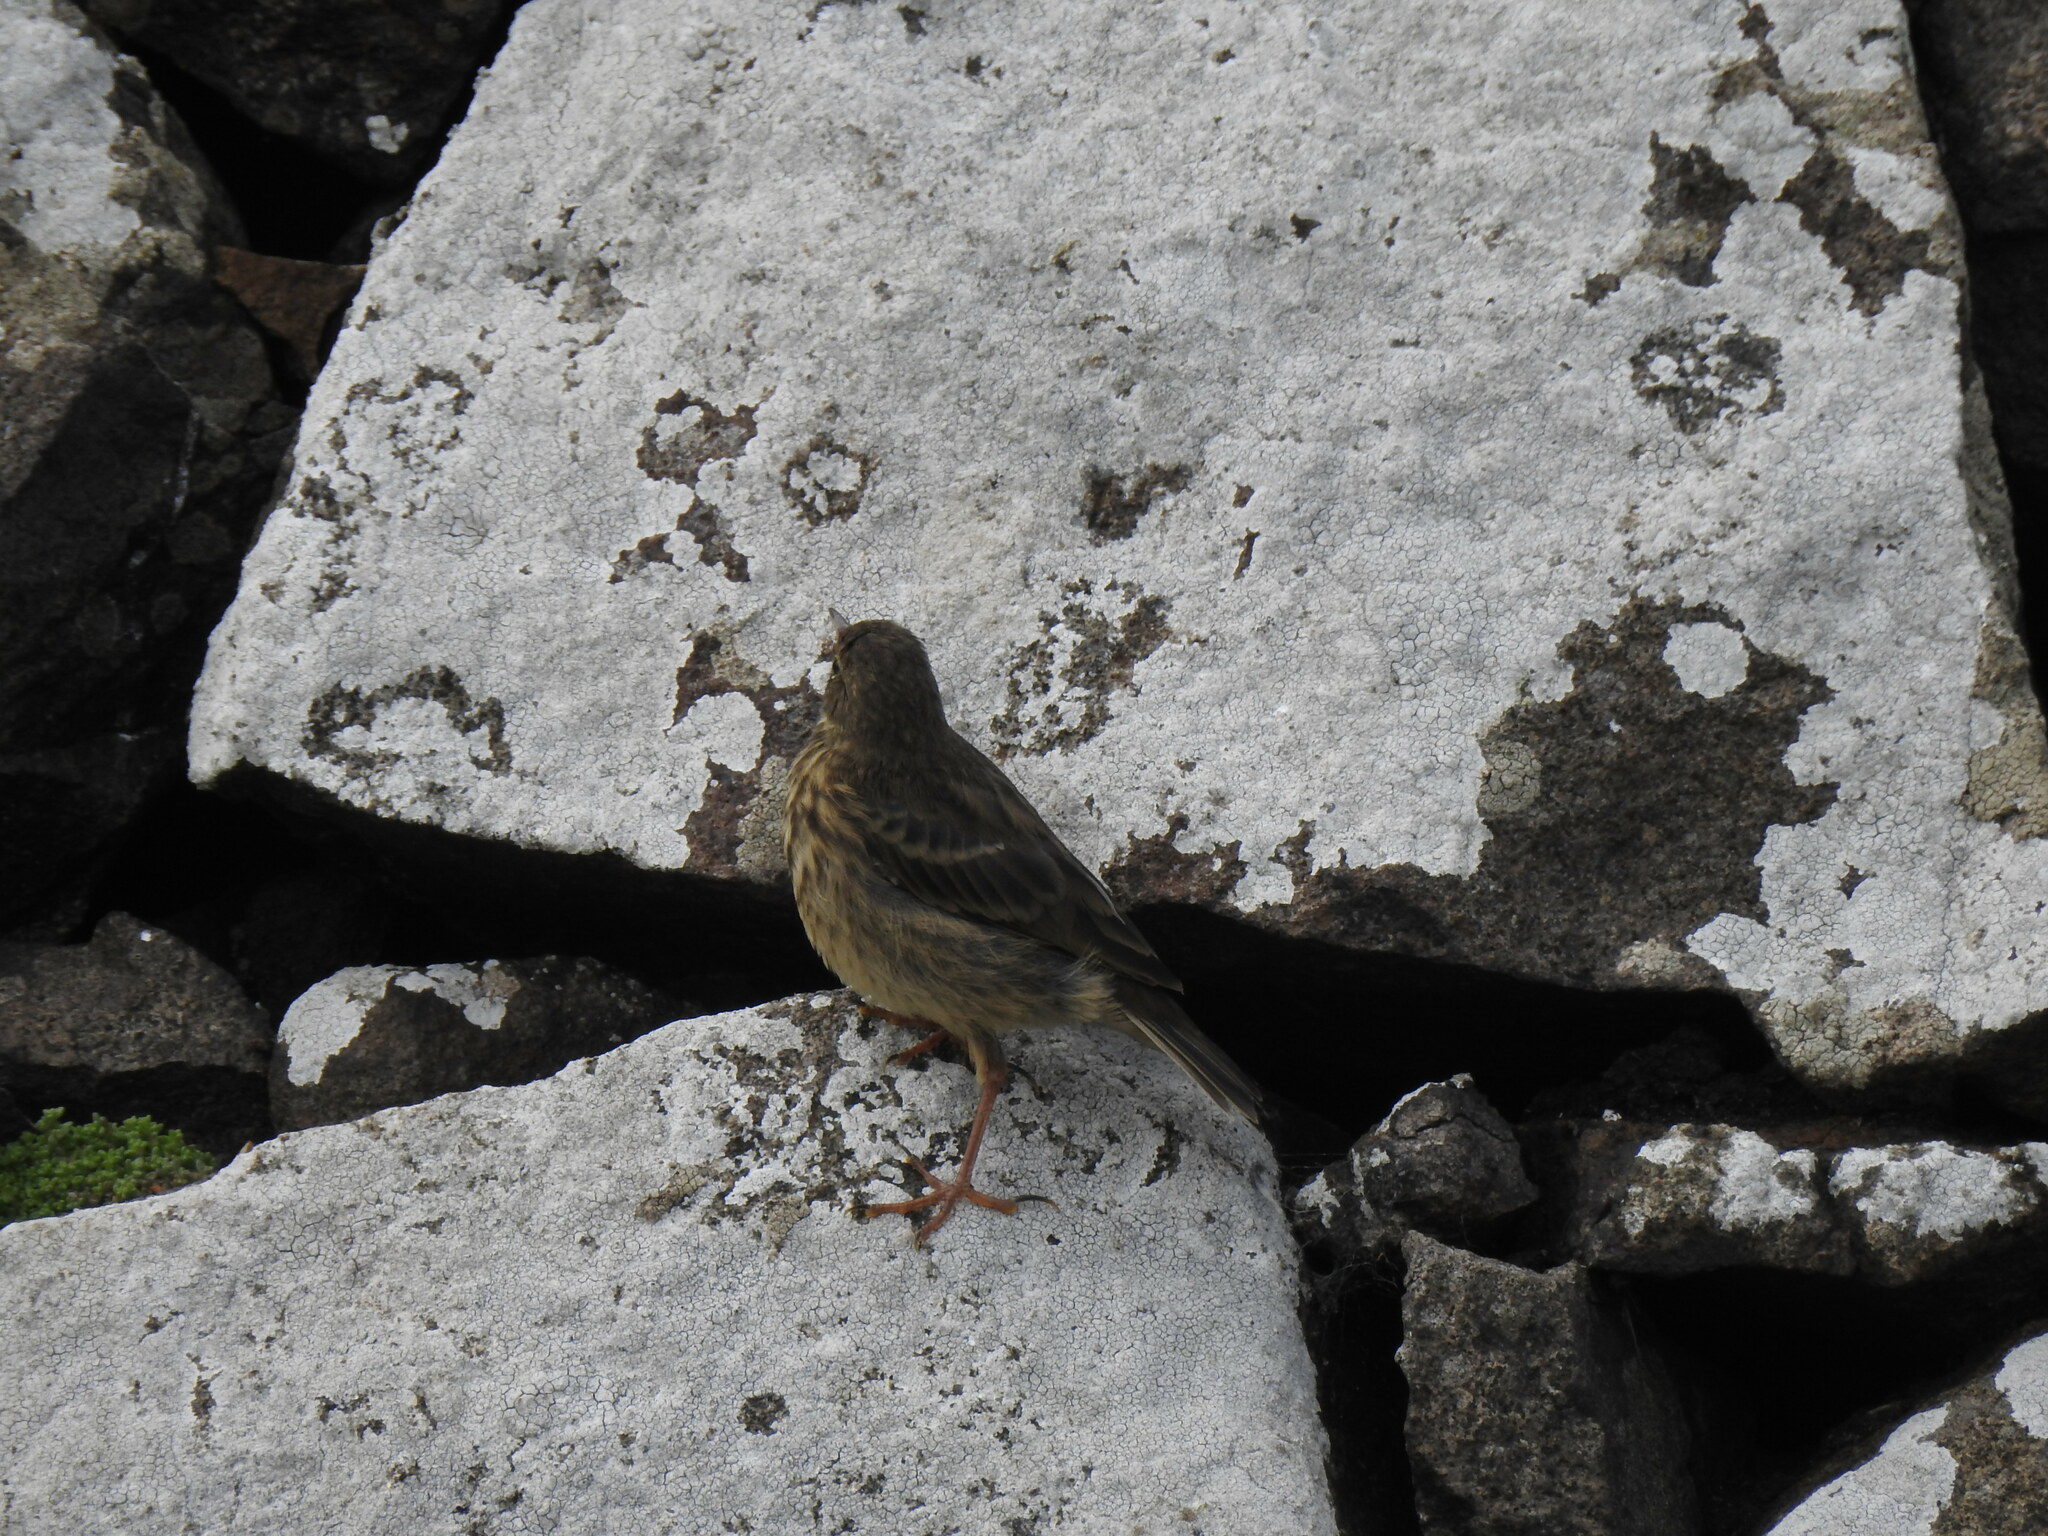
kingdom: Animalia
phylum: Chordata
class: Aves
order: Passeriformes
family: Motacillidae
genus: Anthus
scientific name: Anthus petrosus
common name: Eurasian rock pipit
